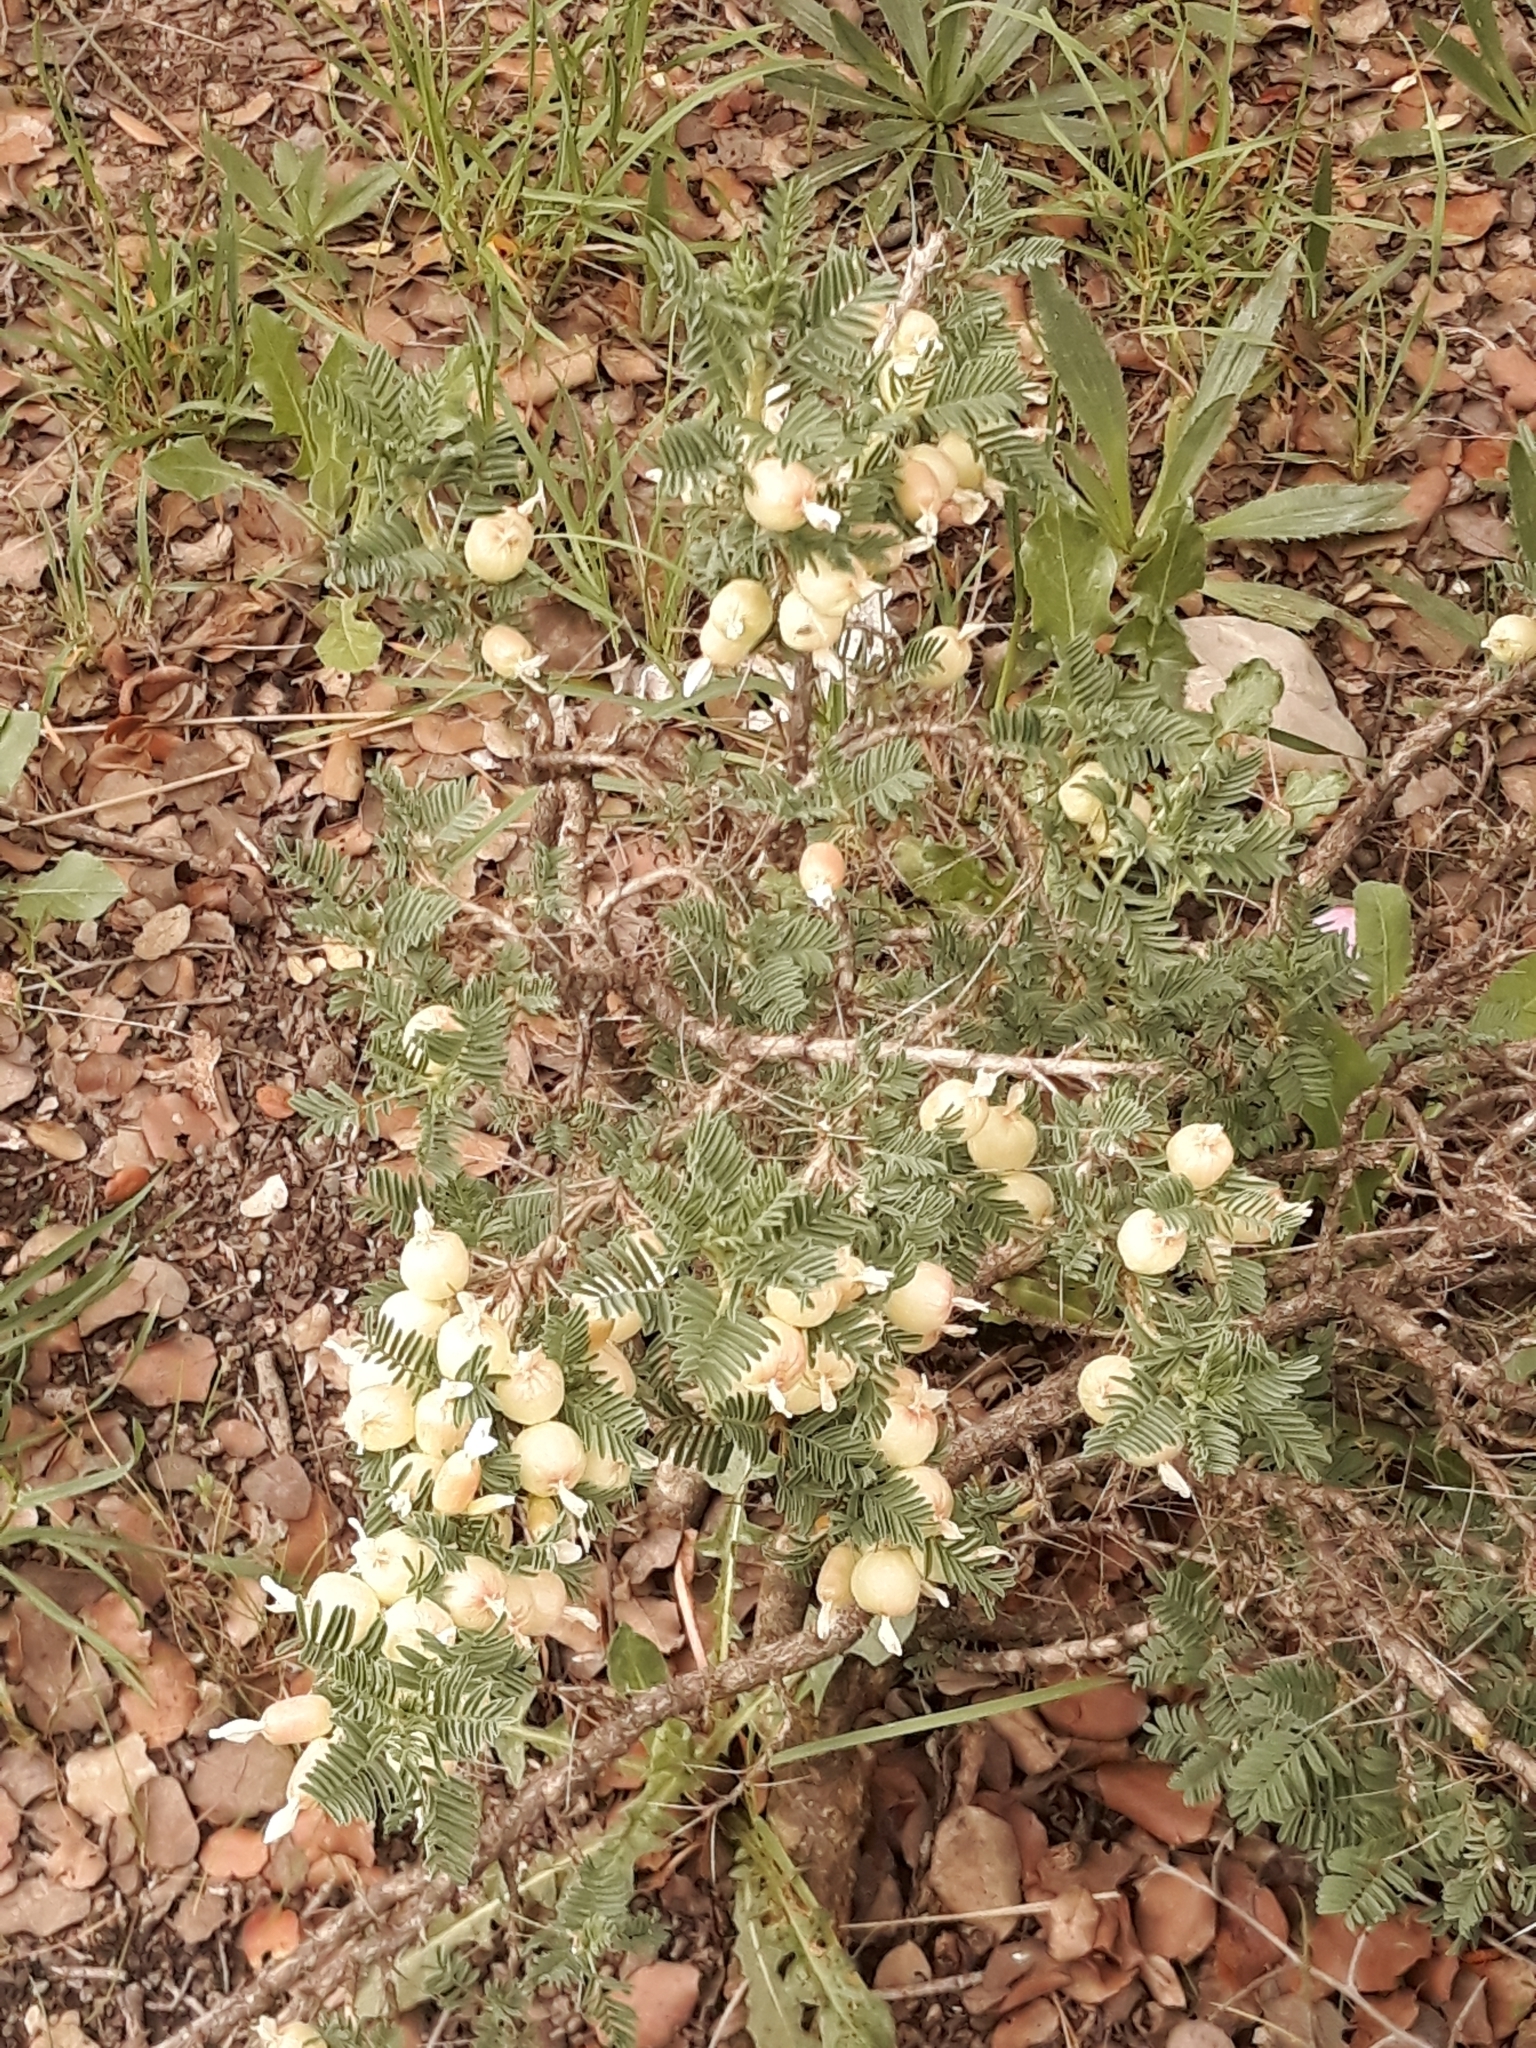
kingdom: Plantae
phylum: Tracheophyta
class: Magnoliopsida
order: Fabales
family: Fabaceae
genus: Astragalus
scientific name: Astragalus armatus
